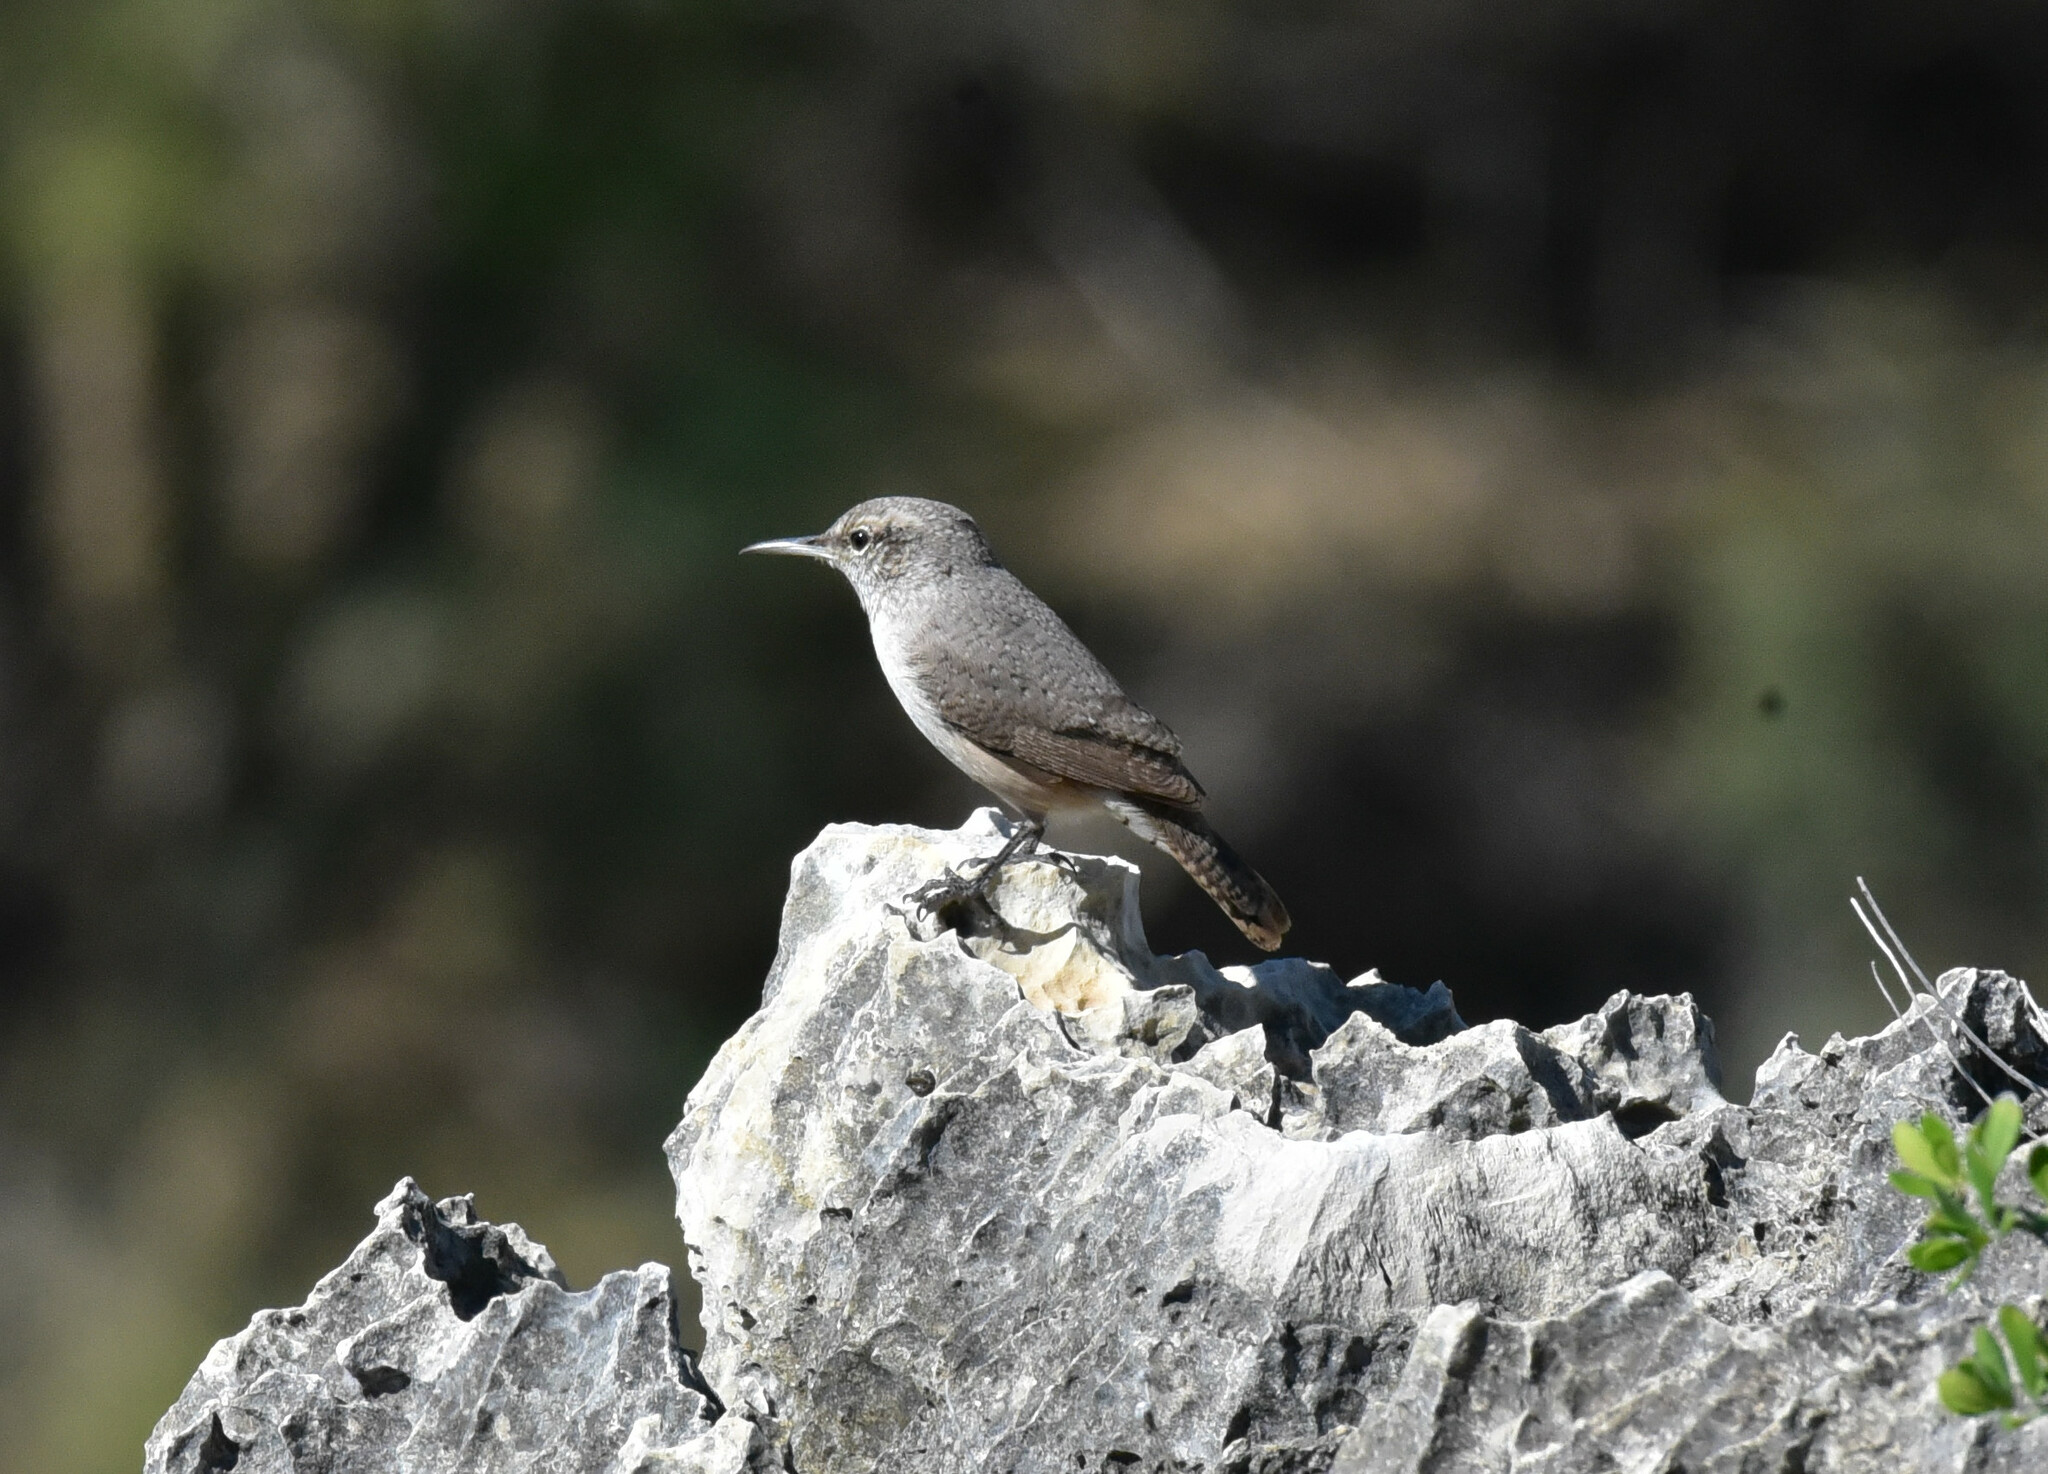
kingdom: Animalia
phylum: Chordata
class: Aves
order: Passeriformes
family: Troglodytidae
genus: Salpinctes
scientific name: Salpinctes obsoletus
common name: Rock wren
